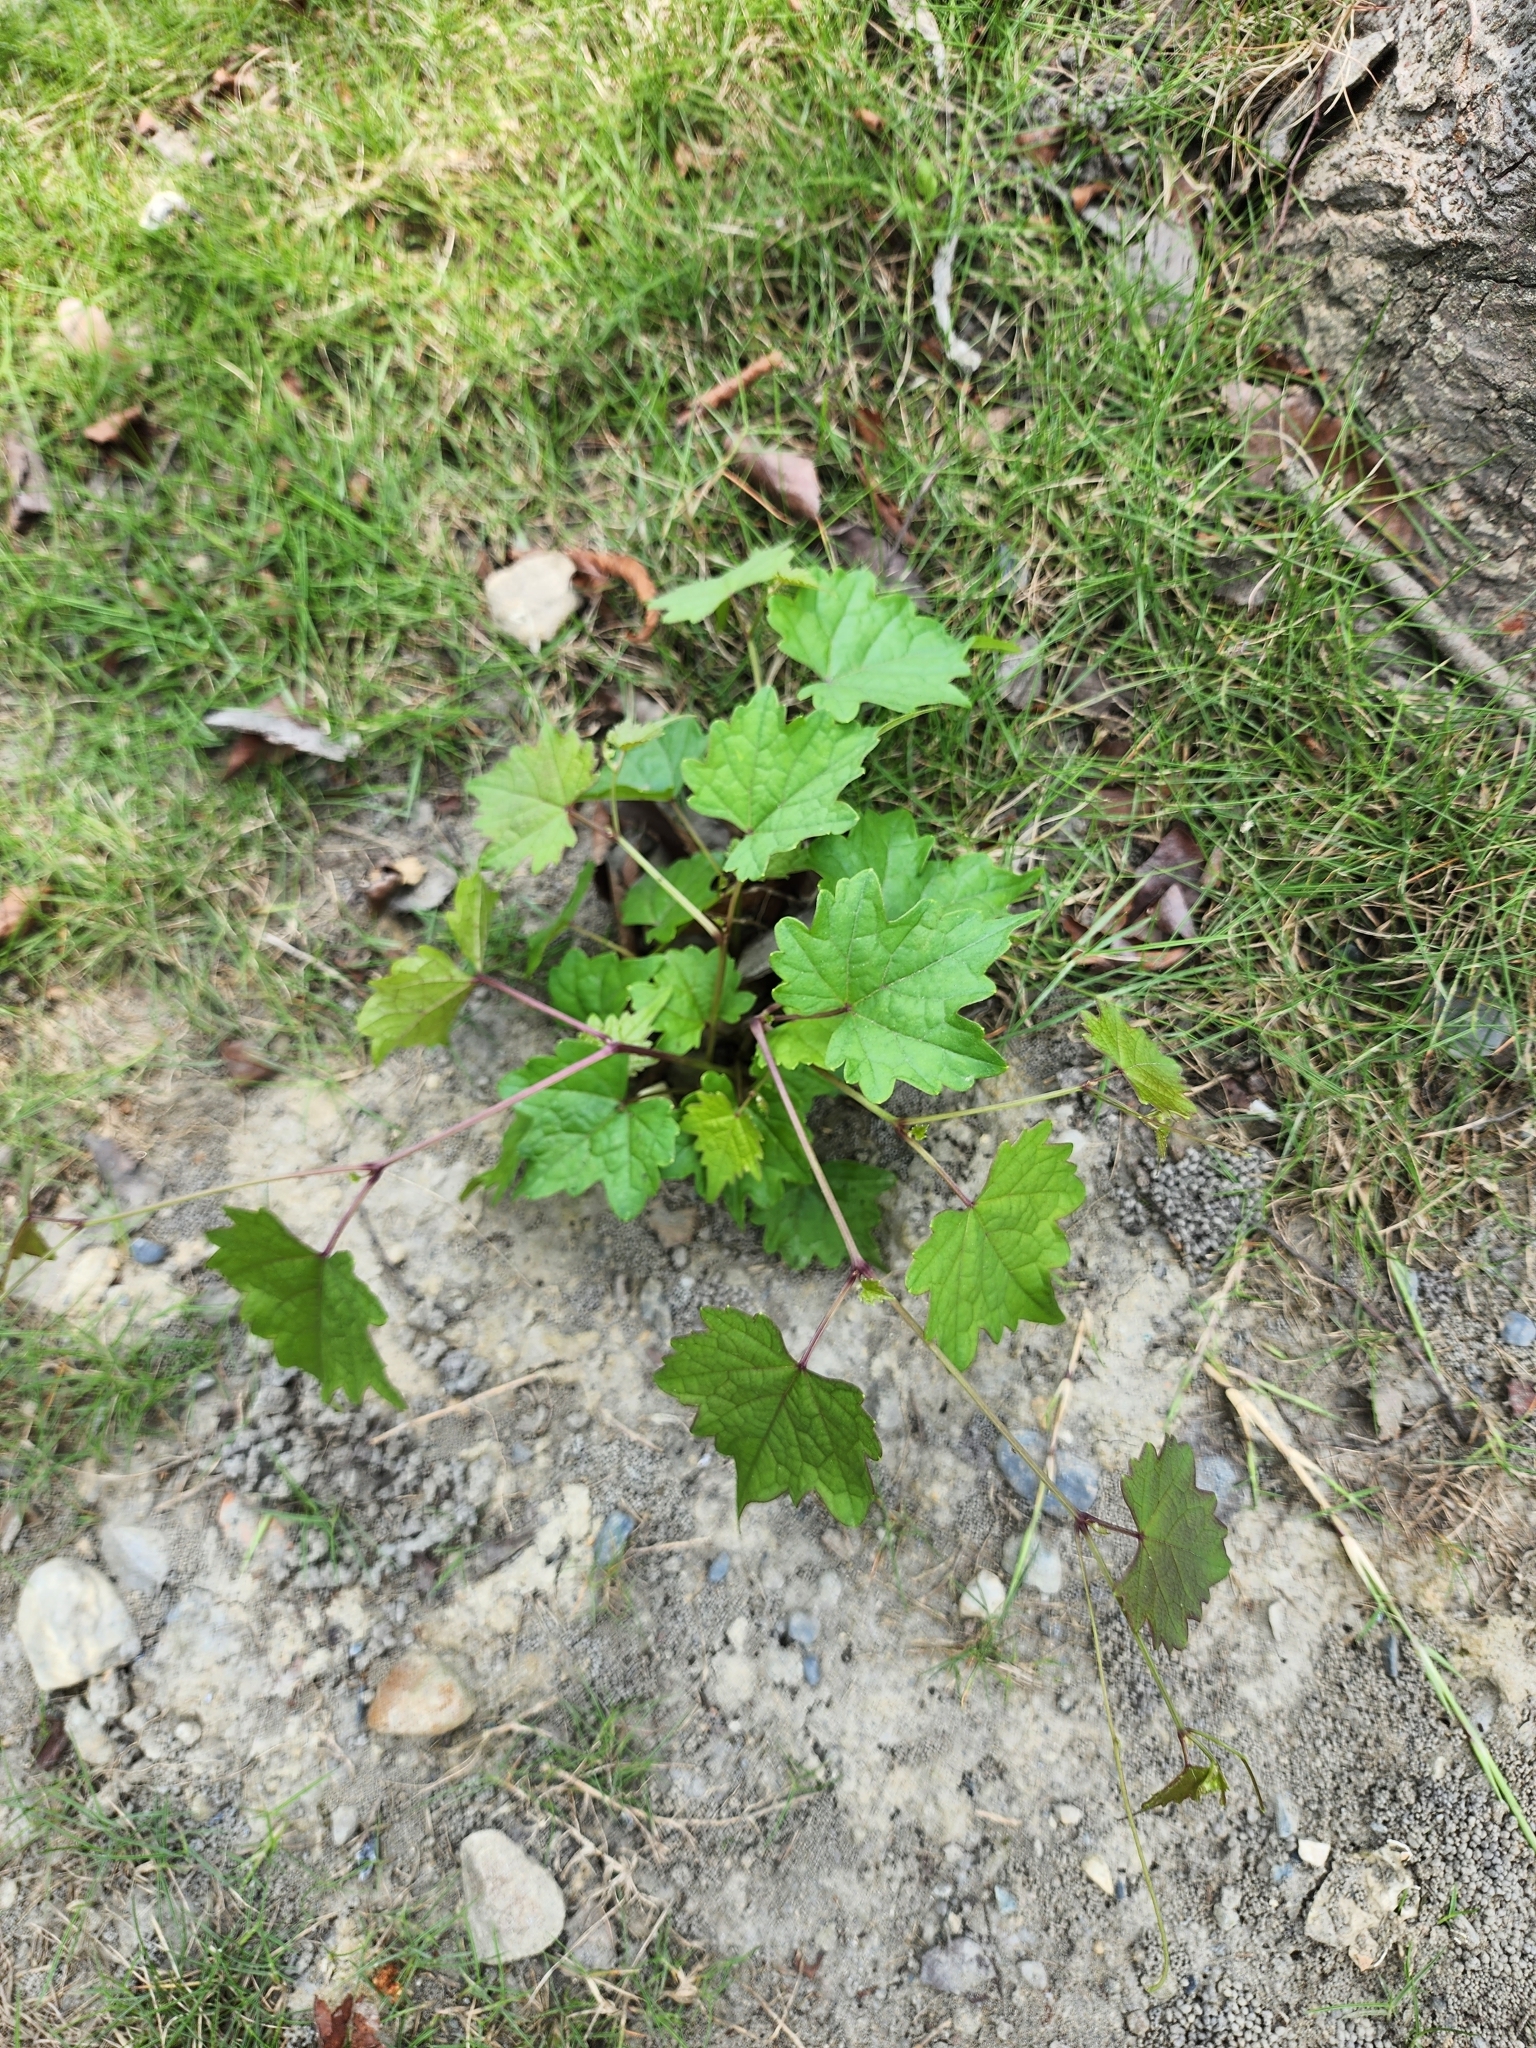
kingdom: Plantae
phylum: Tracheophyta
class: Magnoliopsida
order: Vitales
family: Vitaceae
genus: Ampelopsis
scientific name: Ampelopsis glandulosa
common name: Amur peppervine
